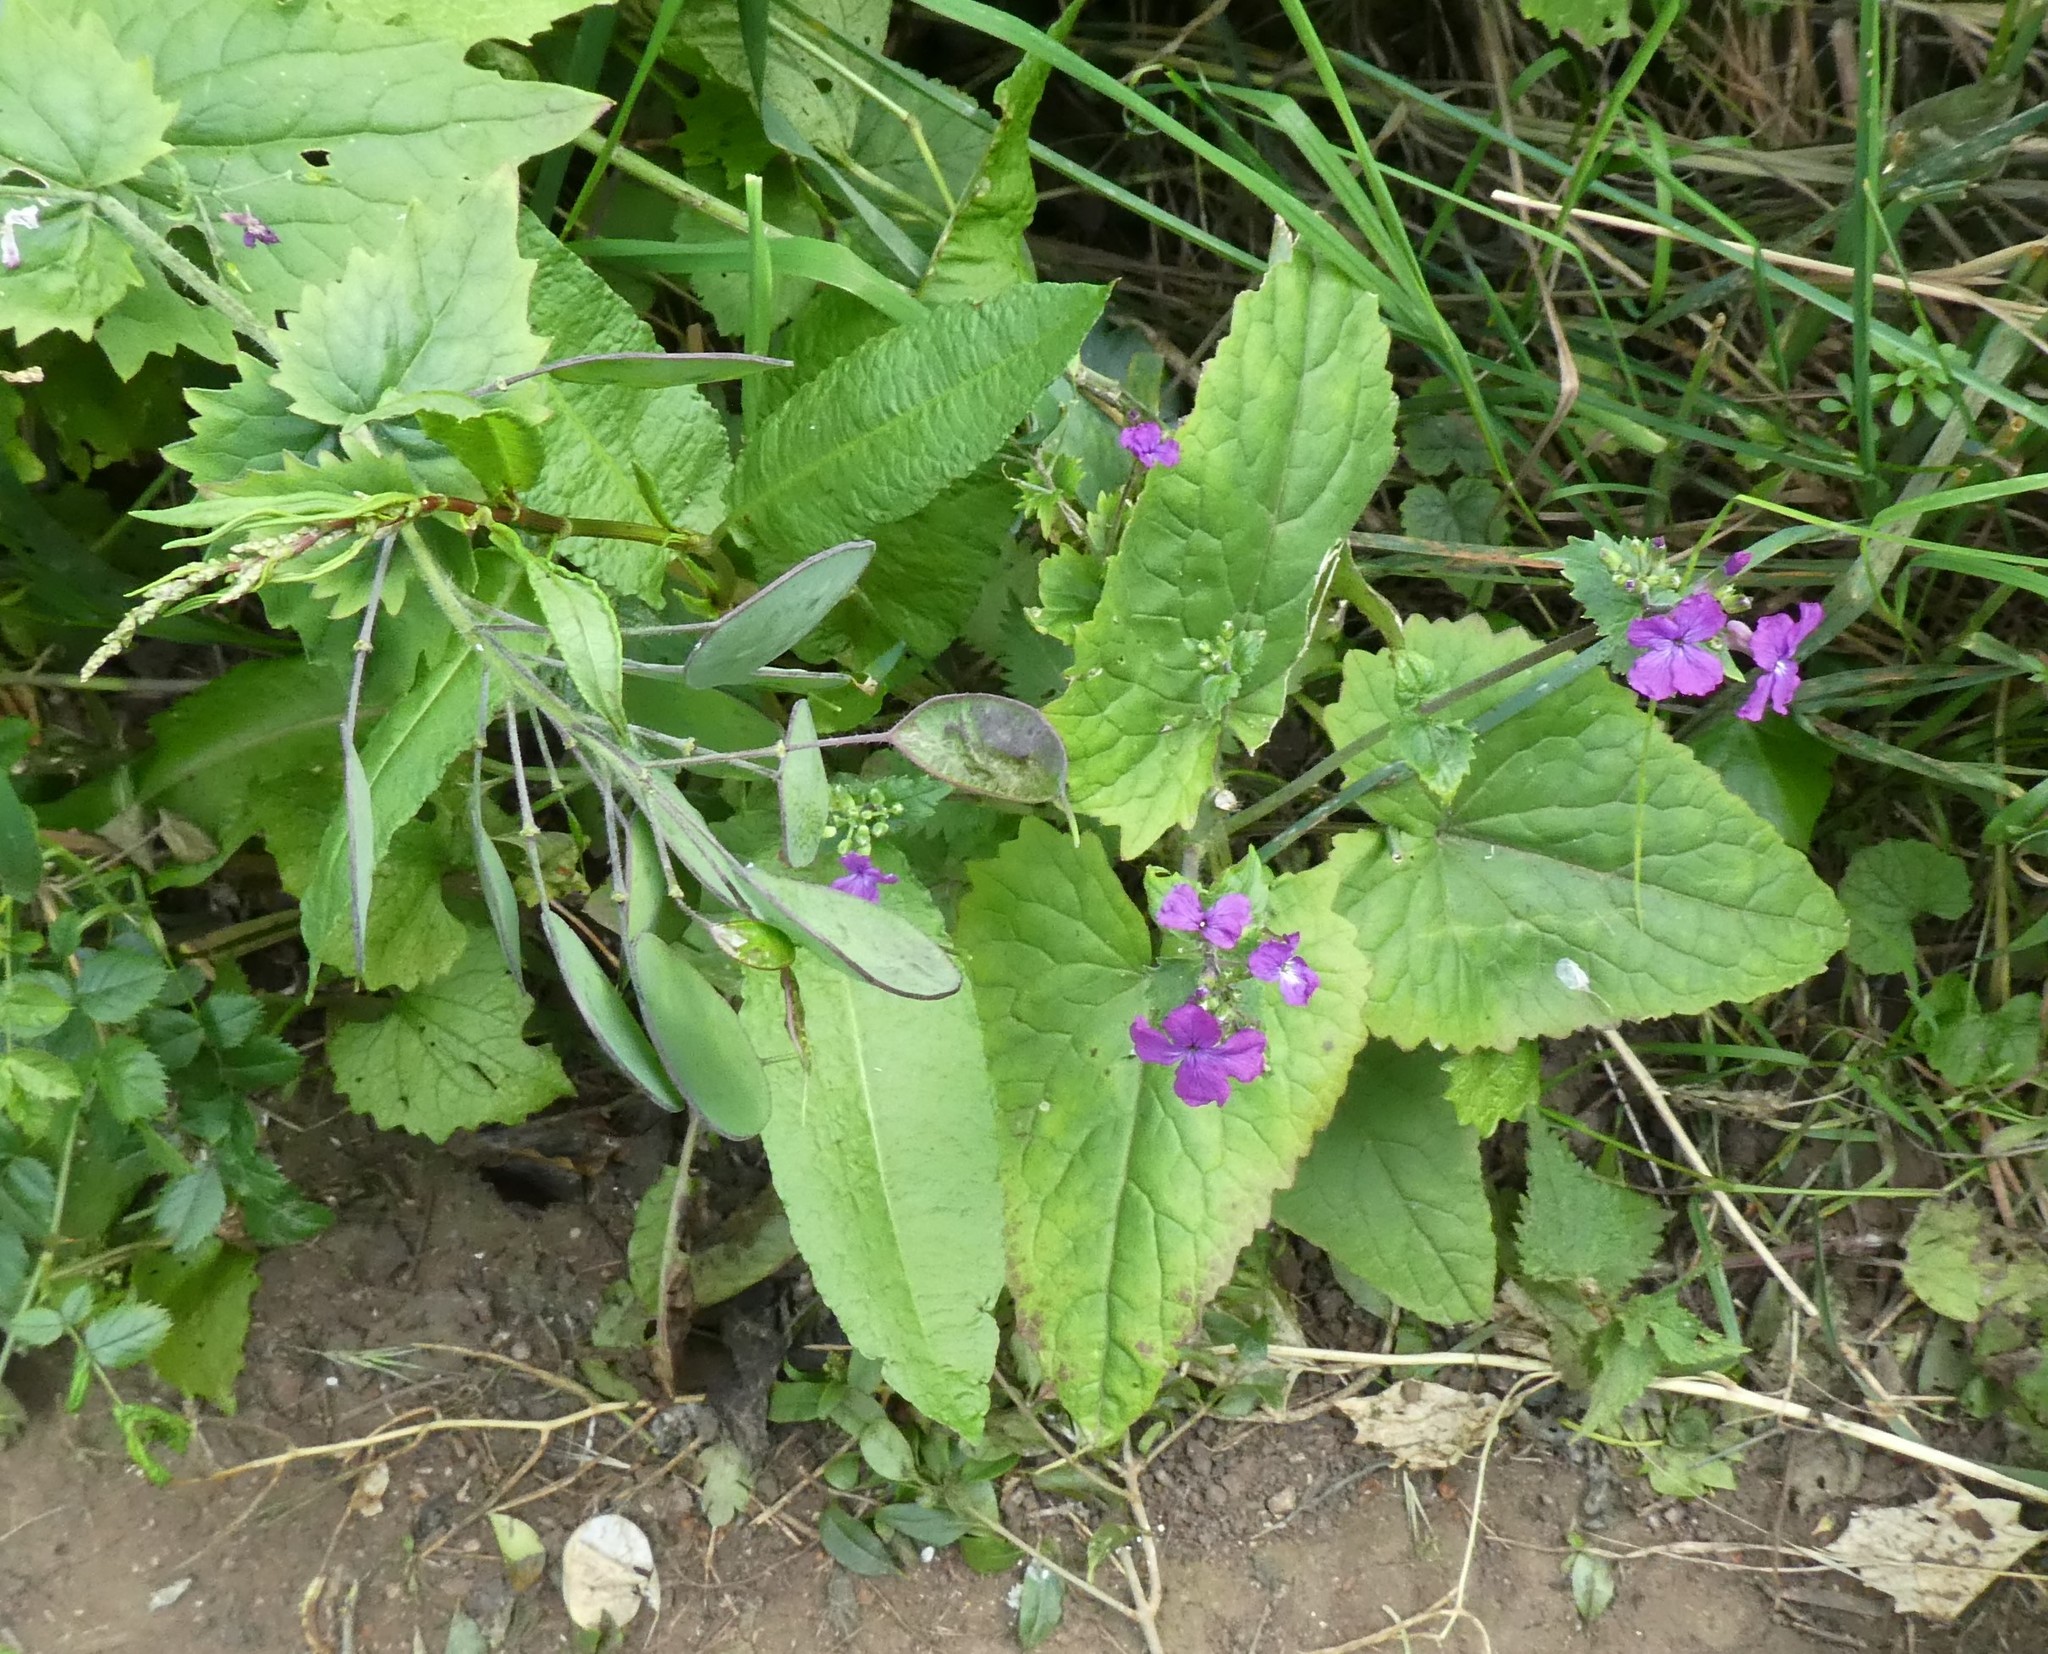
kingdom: Plantae
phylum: Tracheophyta
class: Magnoliopsida
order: Brassicales
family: Brassicaceae
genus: Lunaria
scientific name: Lunaria annua
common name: Honesty
